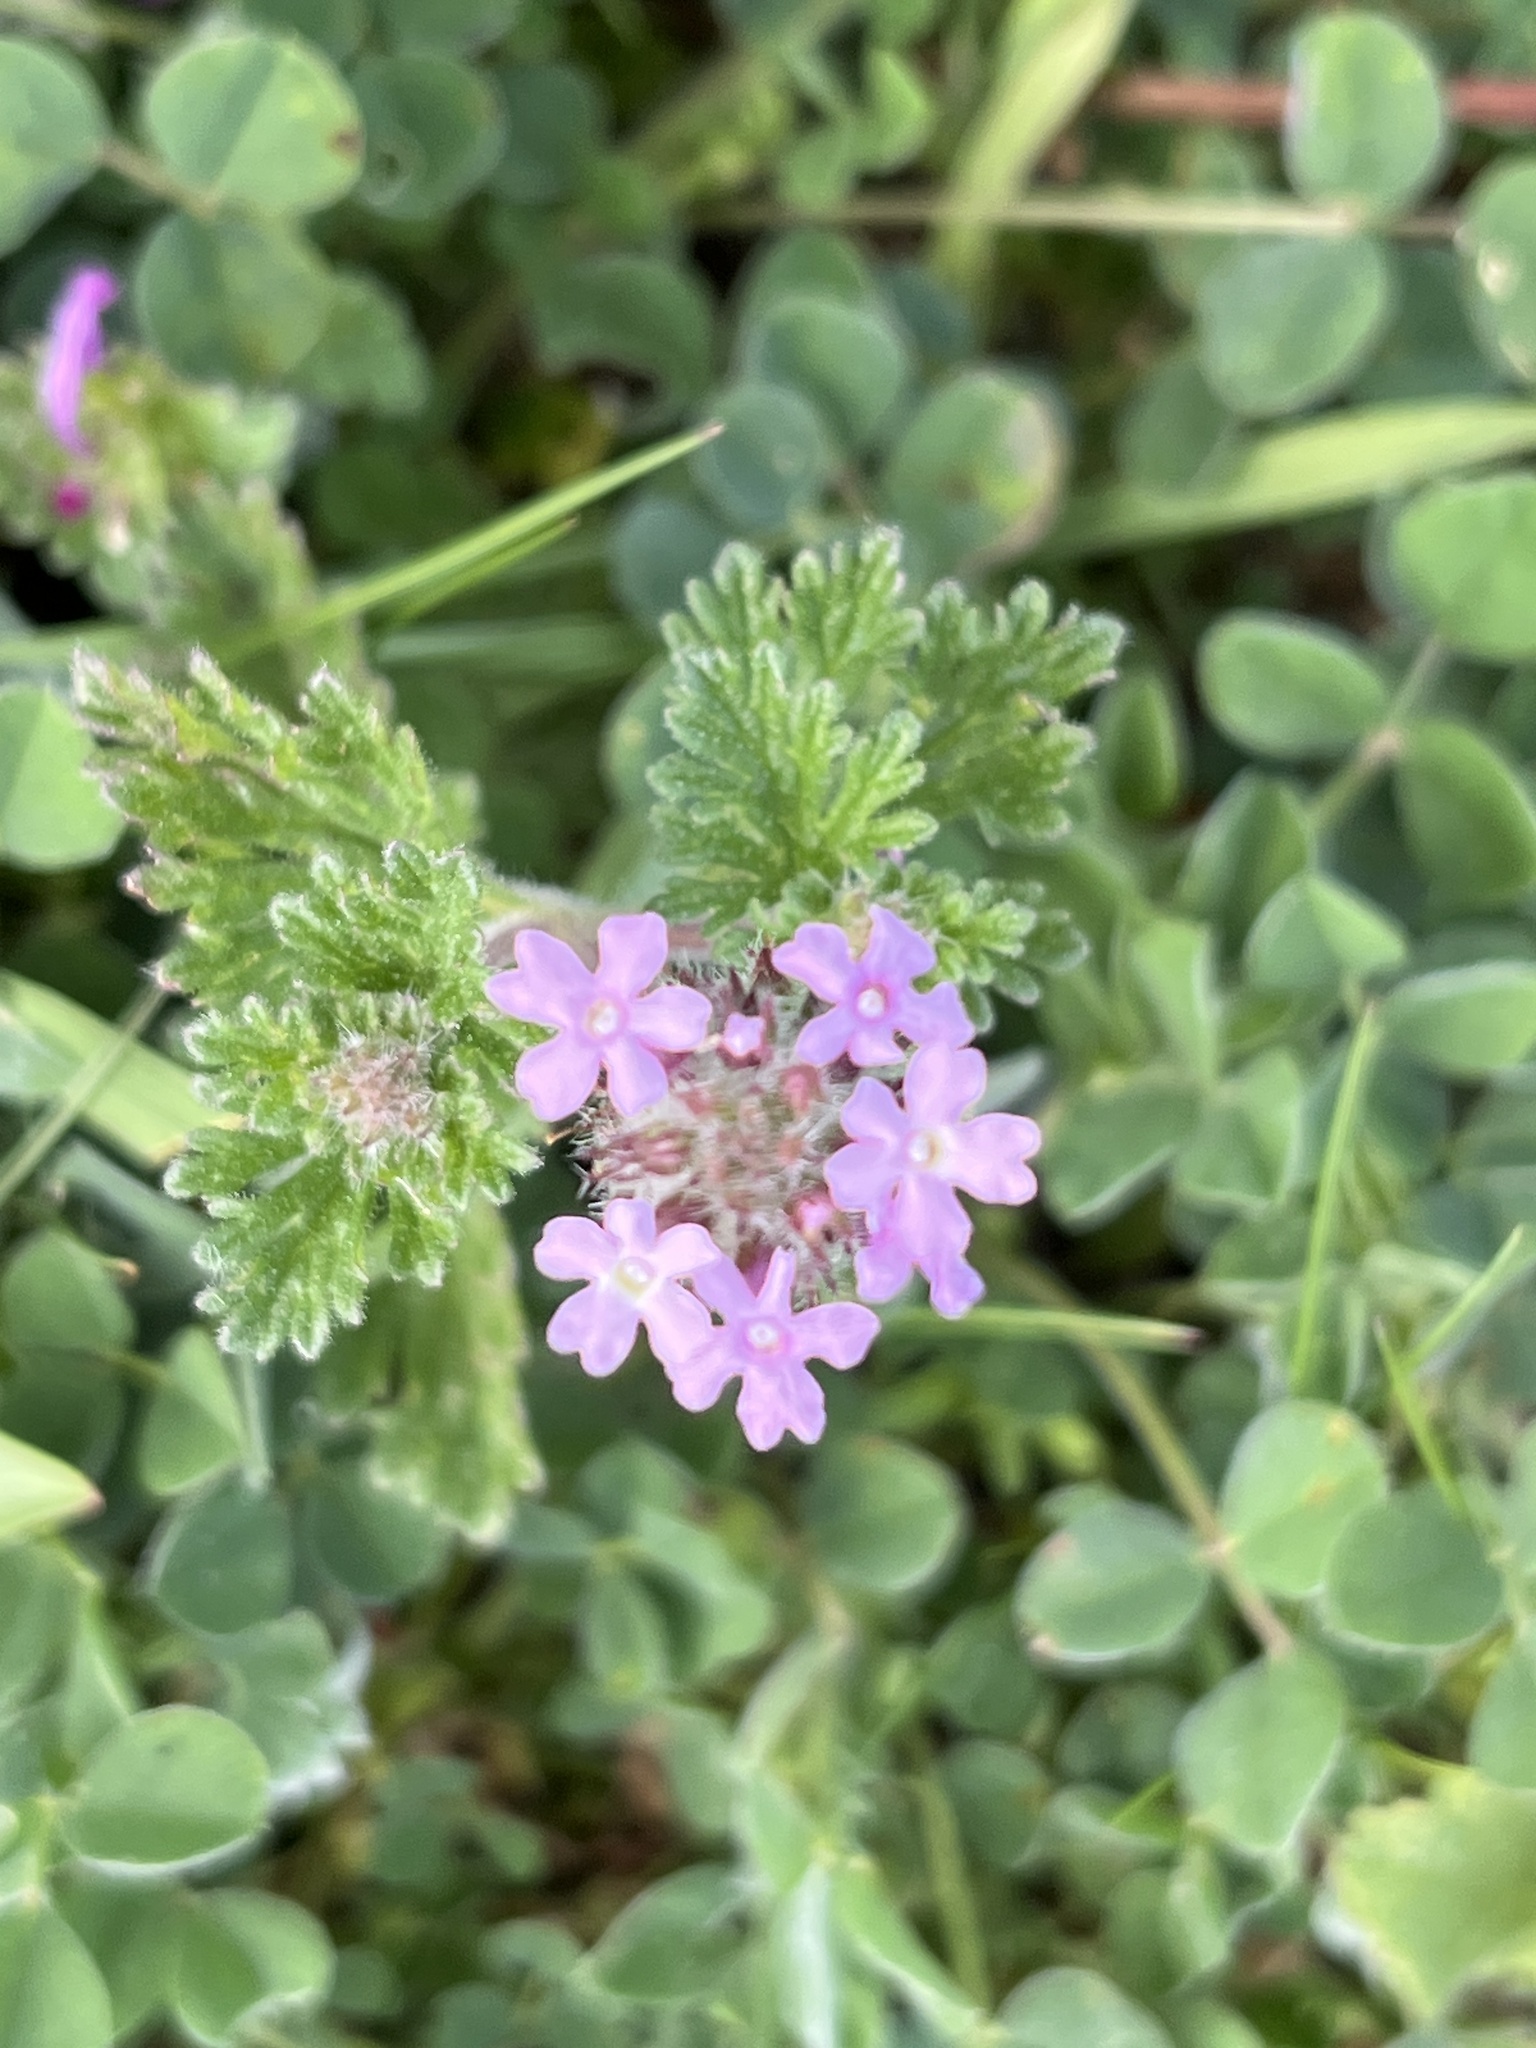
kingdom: Plantae
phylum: Tracheophyta
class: Magnoliopsida
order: Lamiales
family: Verbenaceae
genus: Verbena
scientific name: Verbena pumila
